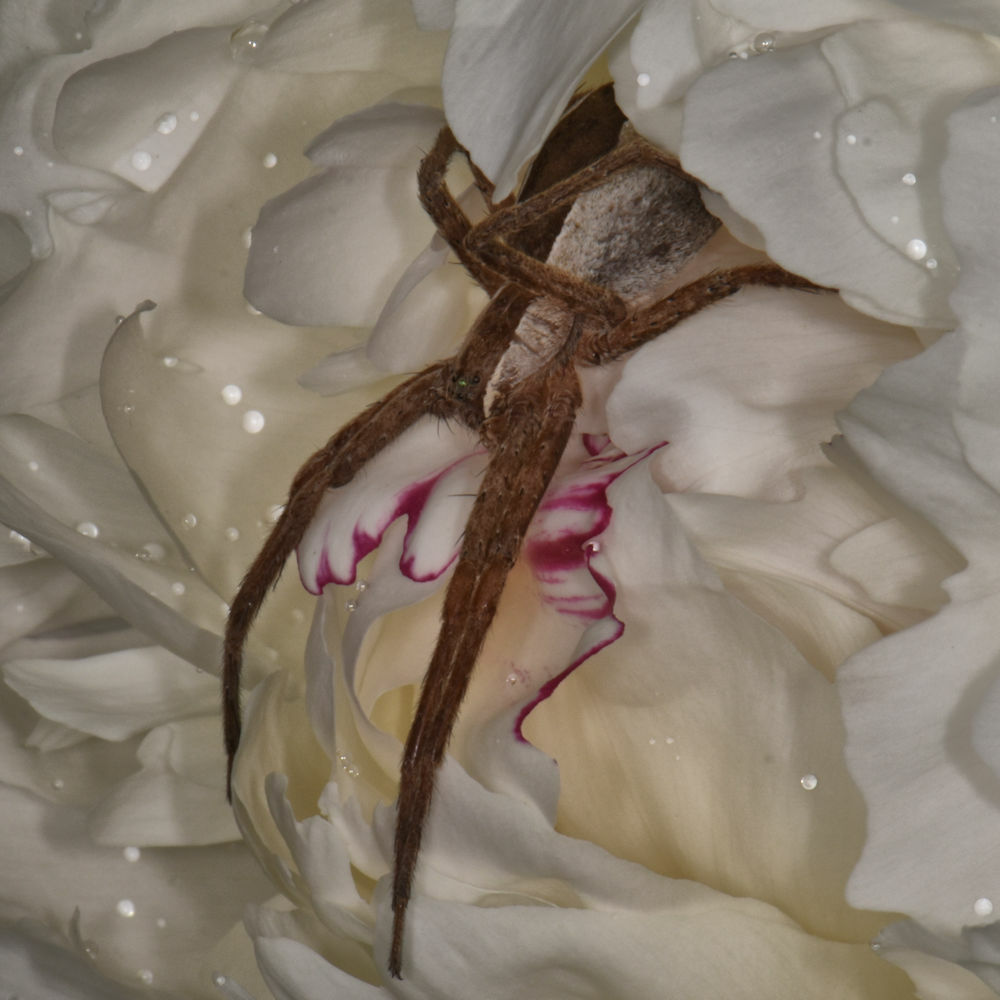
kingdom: Animalia
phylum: Arthropoda
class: Arachnida
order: Araneae
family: Pisauridae
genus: Pisaurina
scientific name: Pisaurina mira
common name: American nursery web spider
